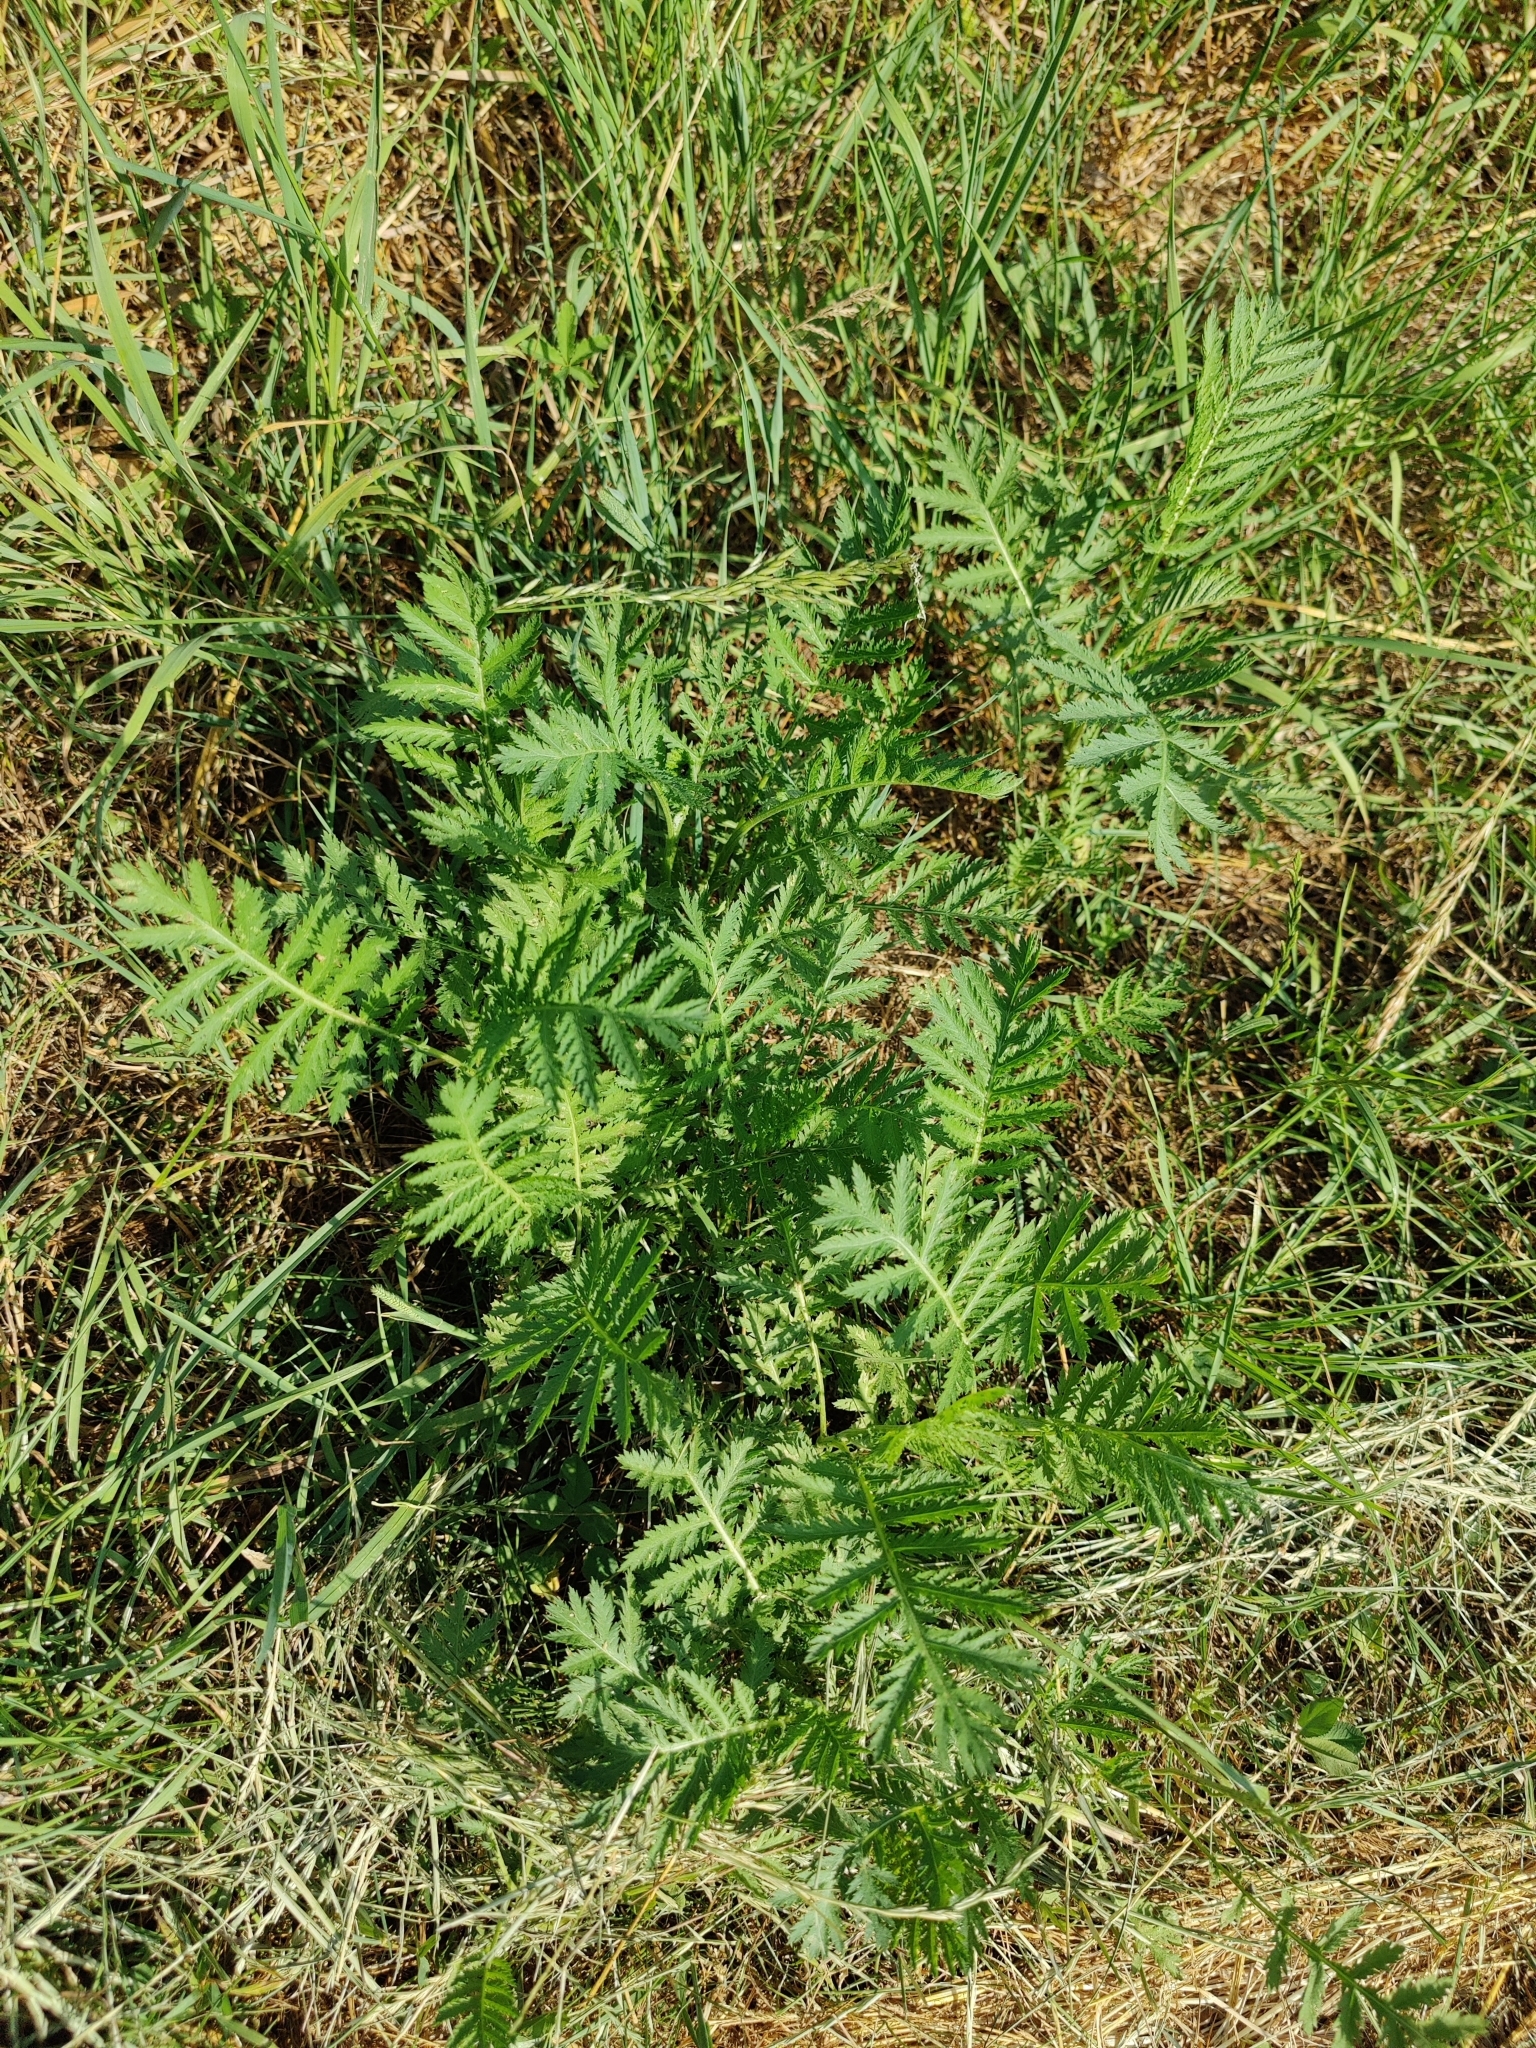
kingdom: Plantae
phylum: Tracheophyta
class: Magnoliopsida
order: Asterales
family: Asteraceae
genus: Tanacetum
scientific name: Tanacetum vulgare
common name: Common tansy
